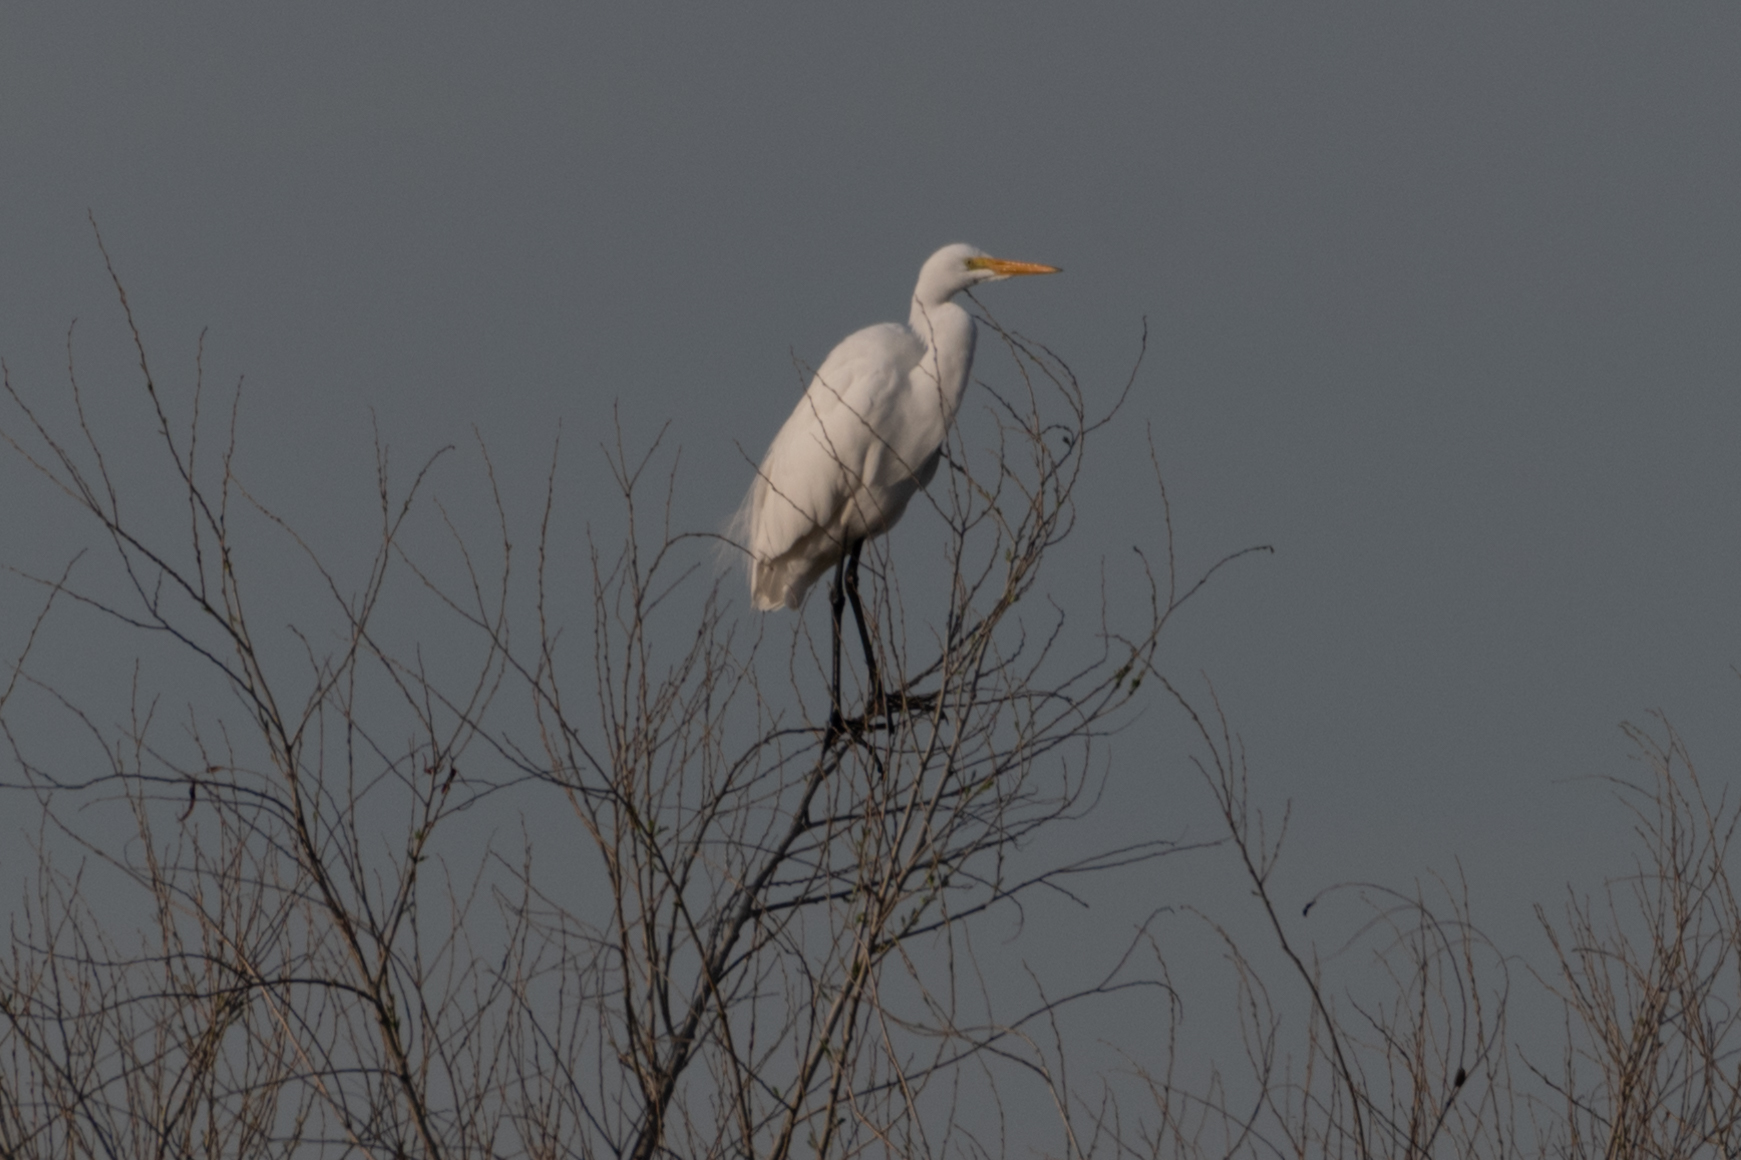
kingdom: Animalia
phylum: Chordata
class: Aves
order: Pelecaniformes
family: Ardeidae
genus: Ardea
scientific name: Ardea alba
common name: Great egret
